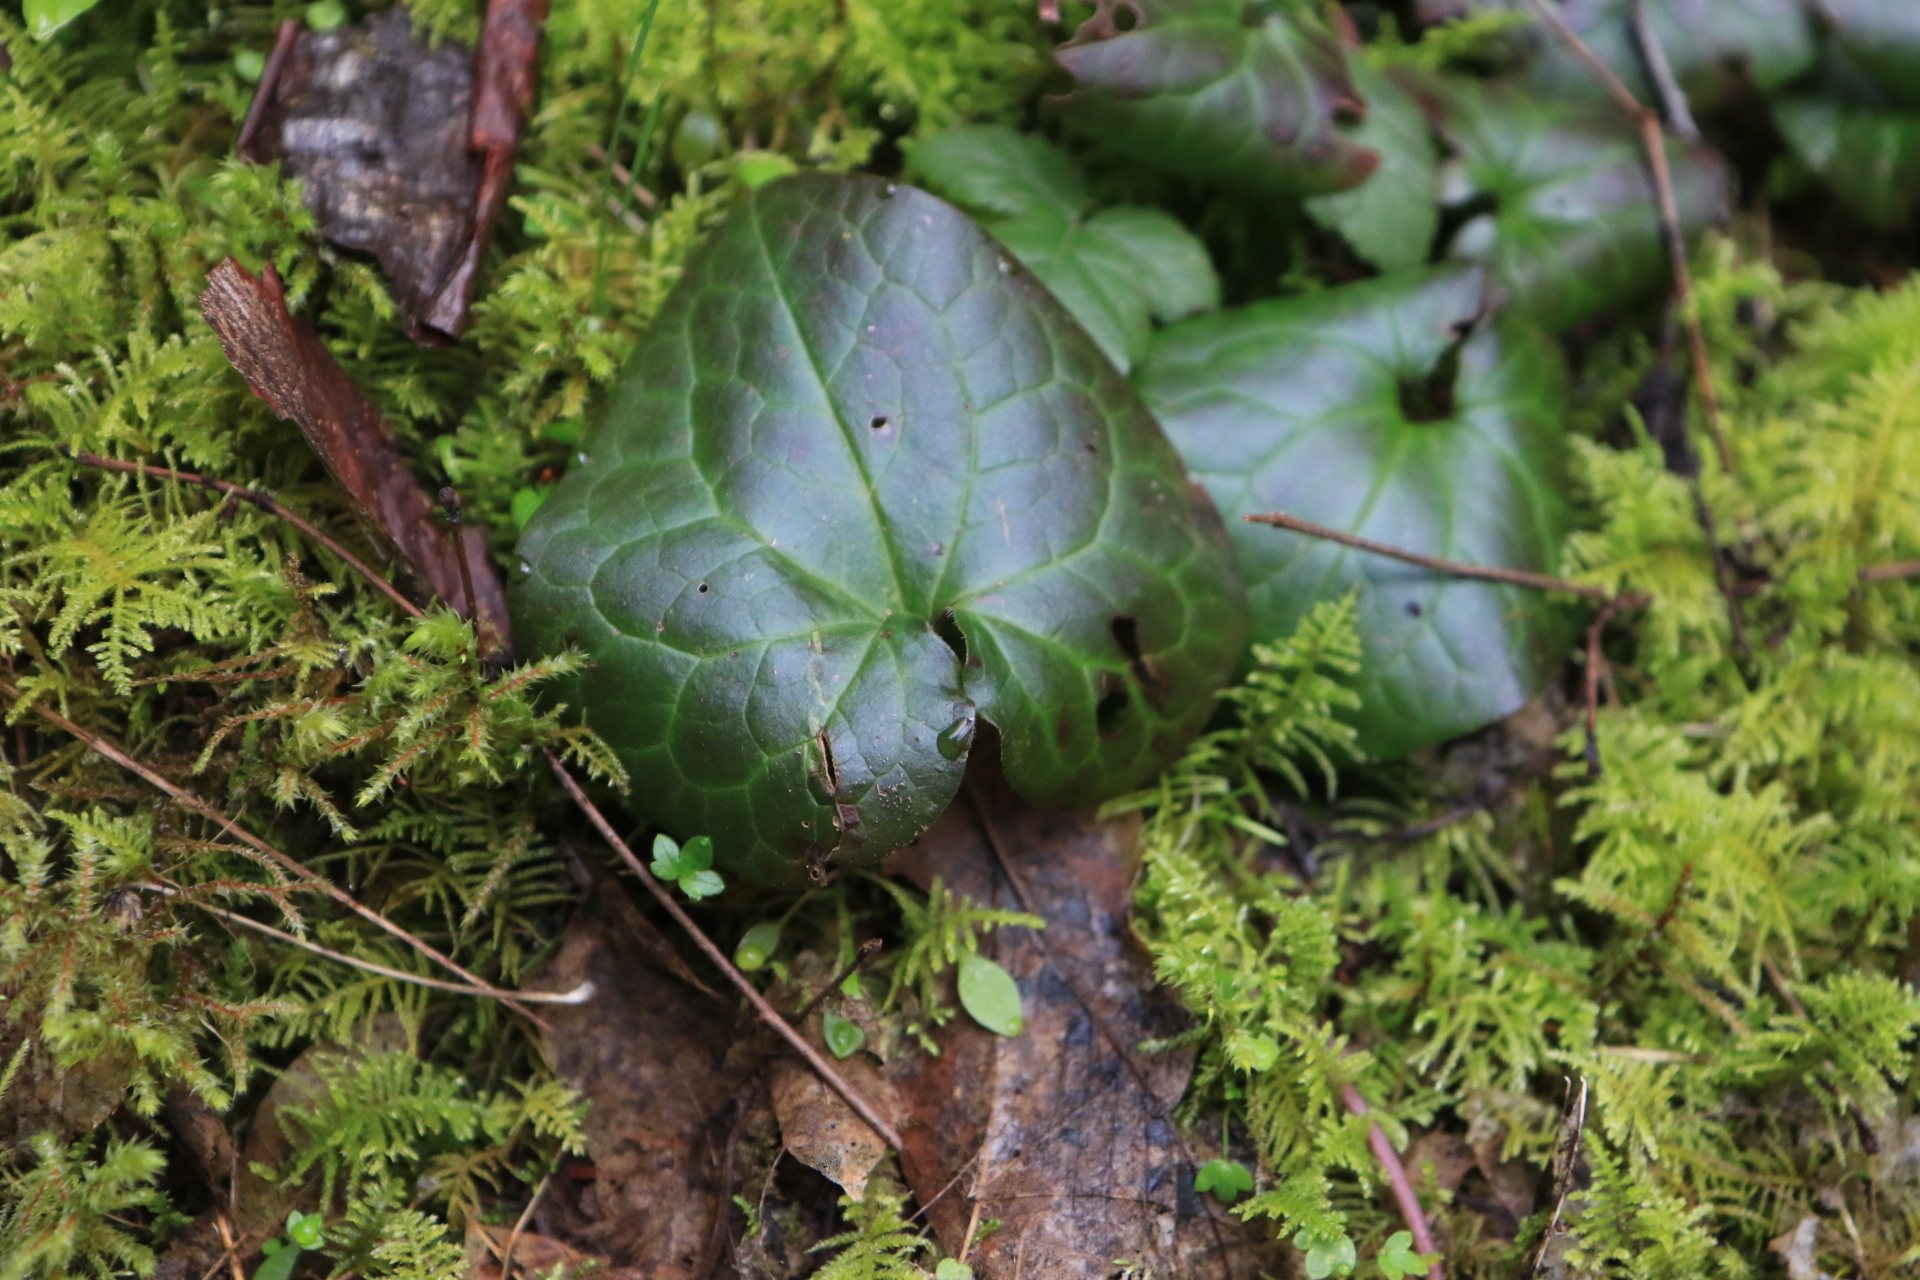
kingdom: Plantae
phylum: Tracheophyta
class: Magnoliopsida
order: Piperales
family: Aristolochiaceae
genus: Asarum
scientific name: Asarum caudatum
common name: Wild ginger
